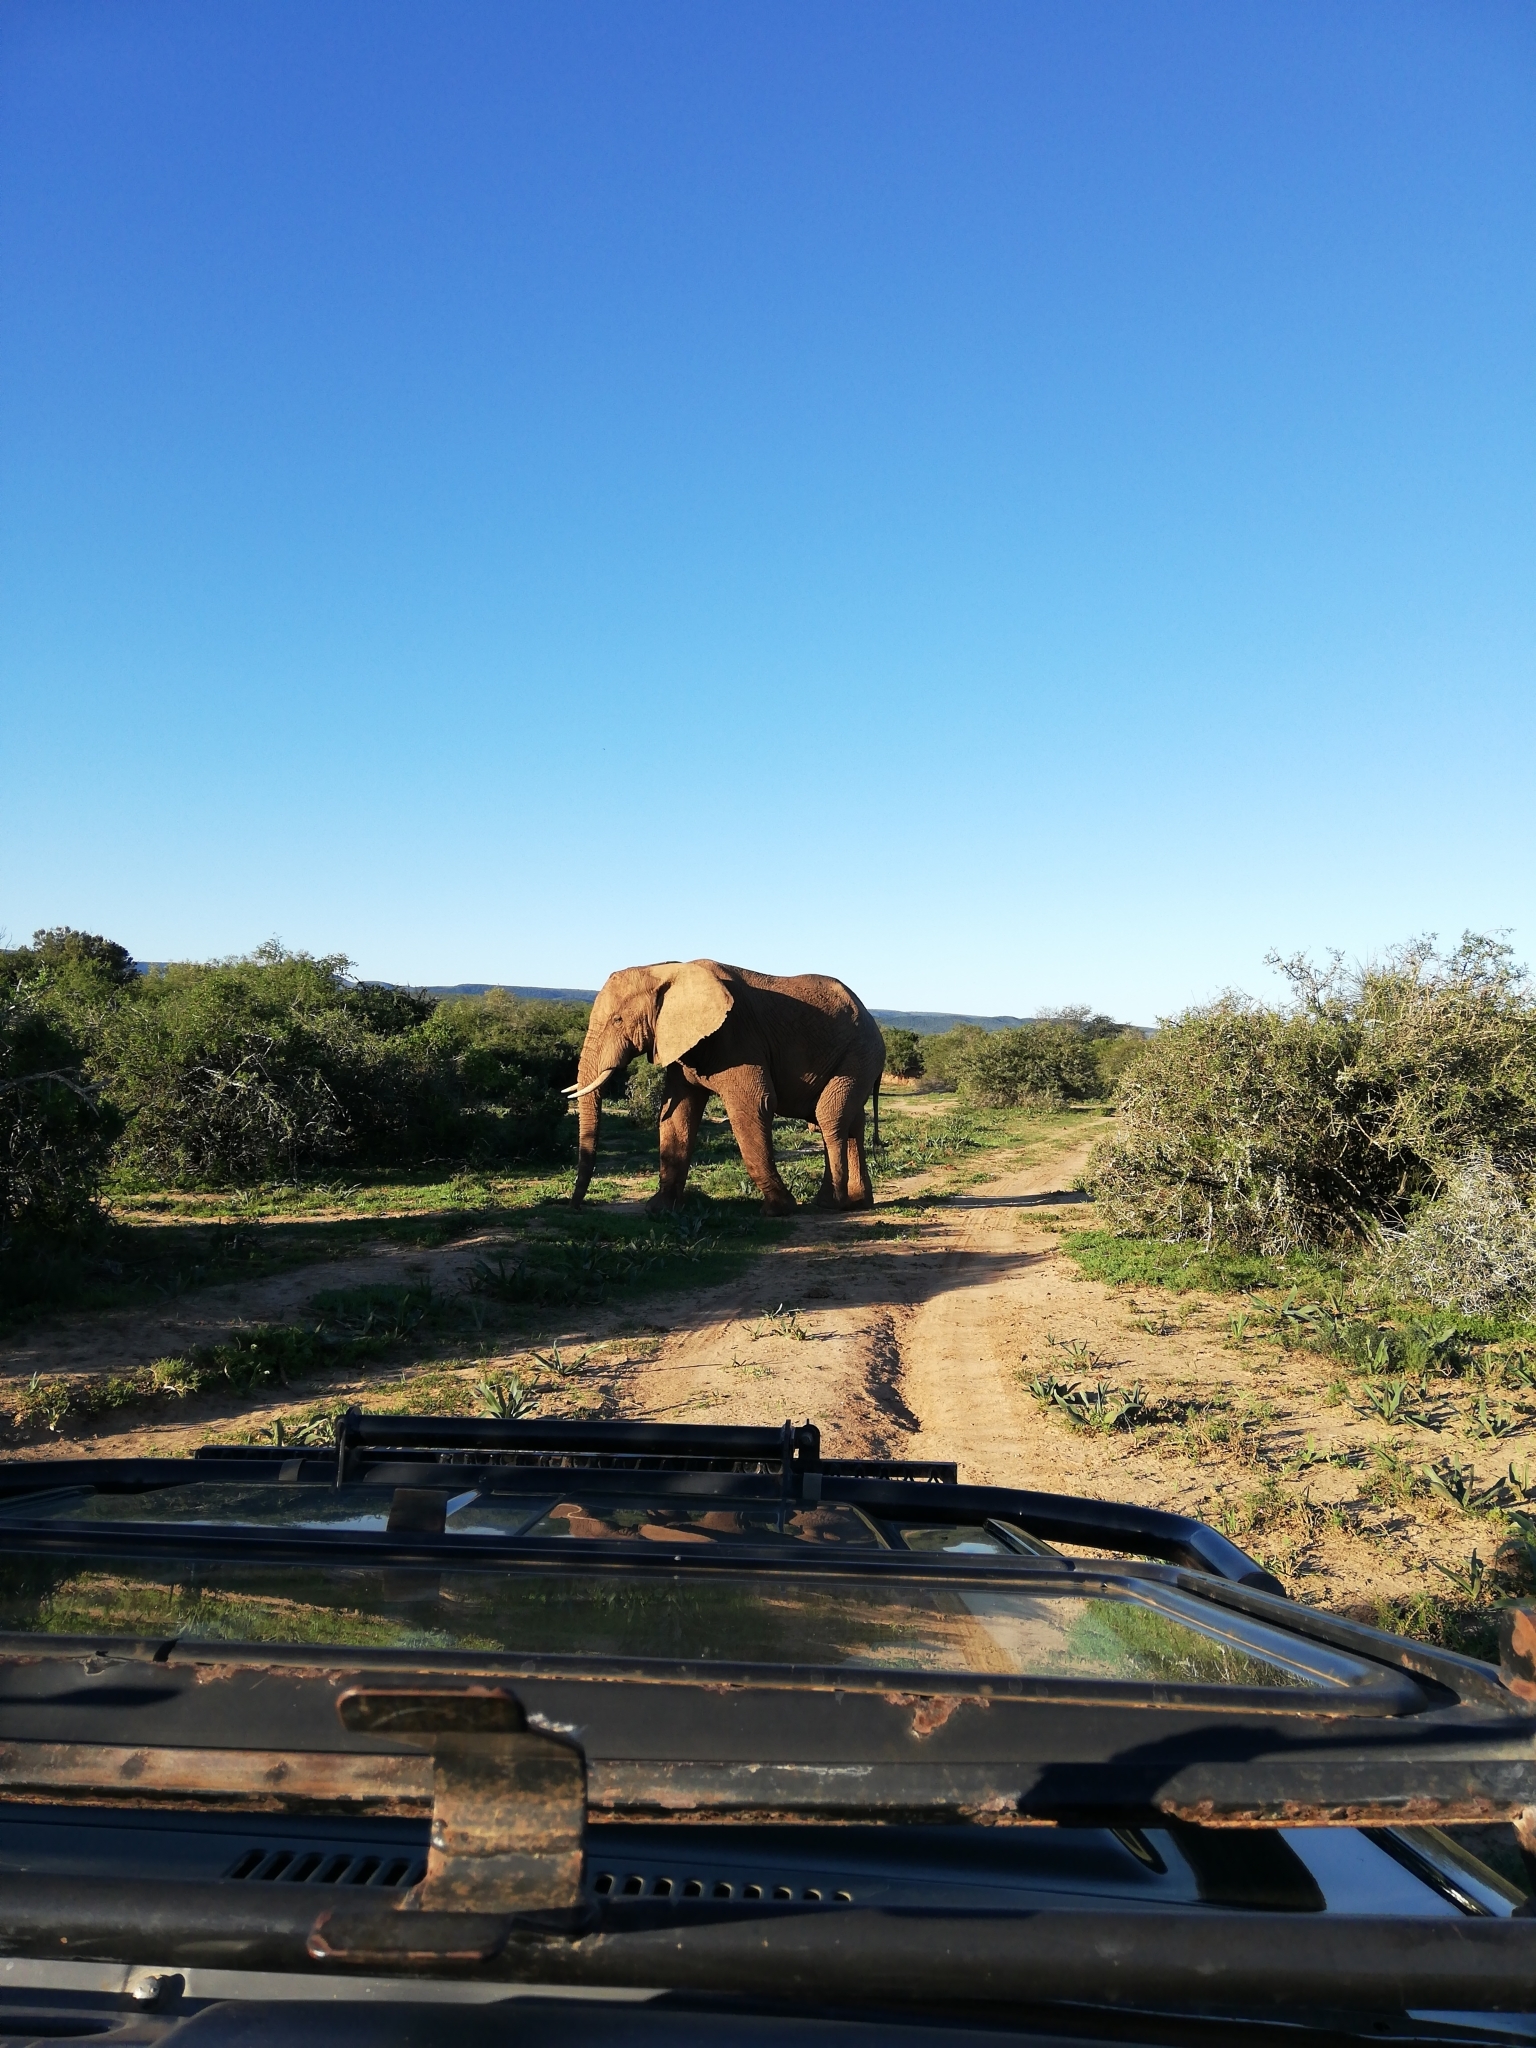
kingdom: Animalia
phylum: Chordata
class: Mammalia
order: Proboscidea
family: Elephantidae
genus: Loxodonta
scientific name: Loxodonta africana
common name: African elephant
